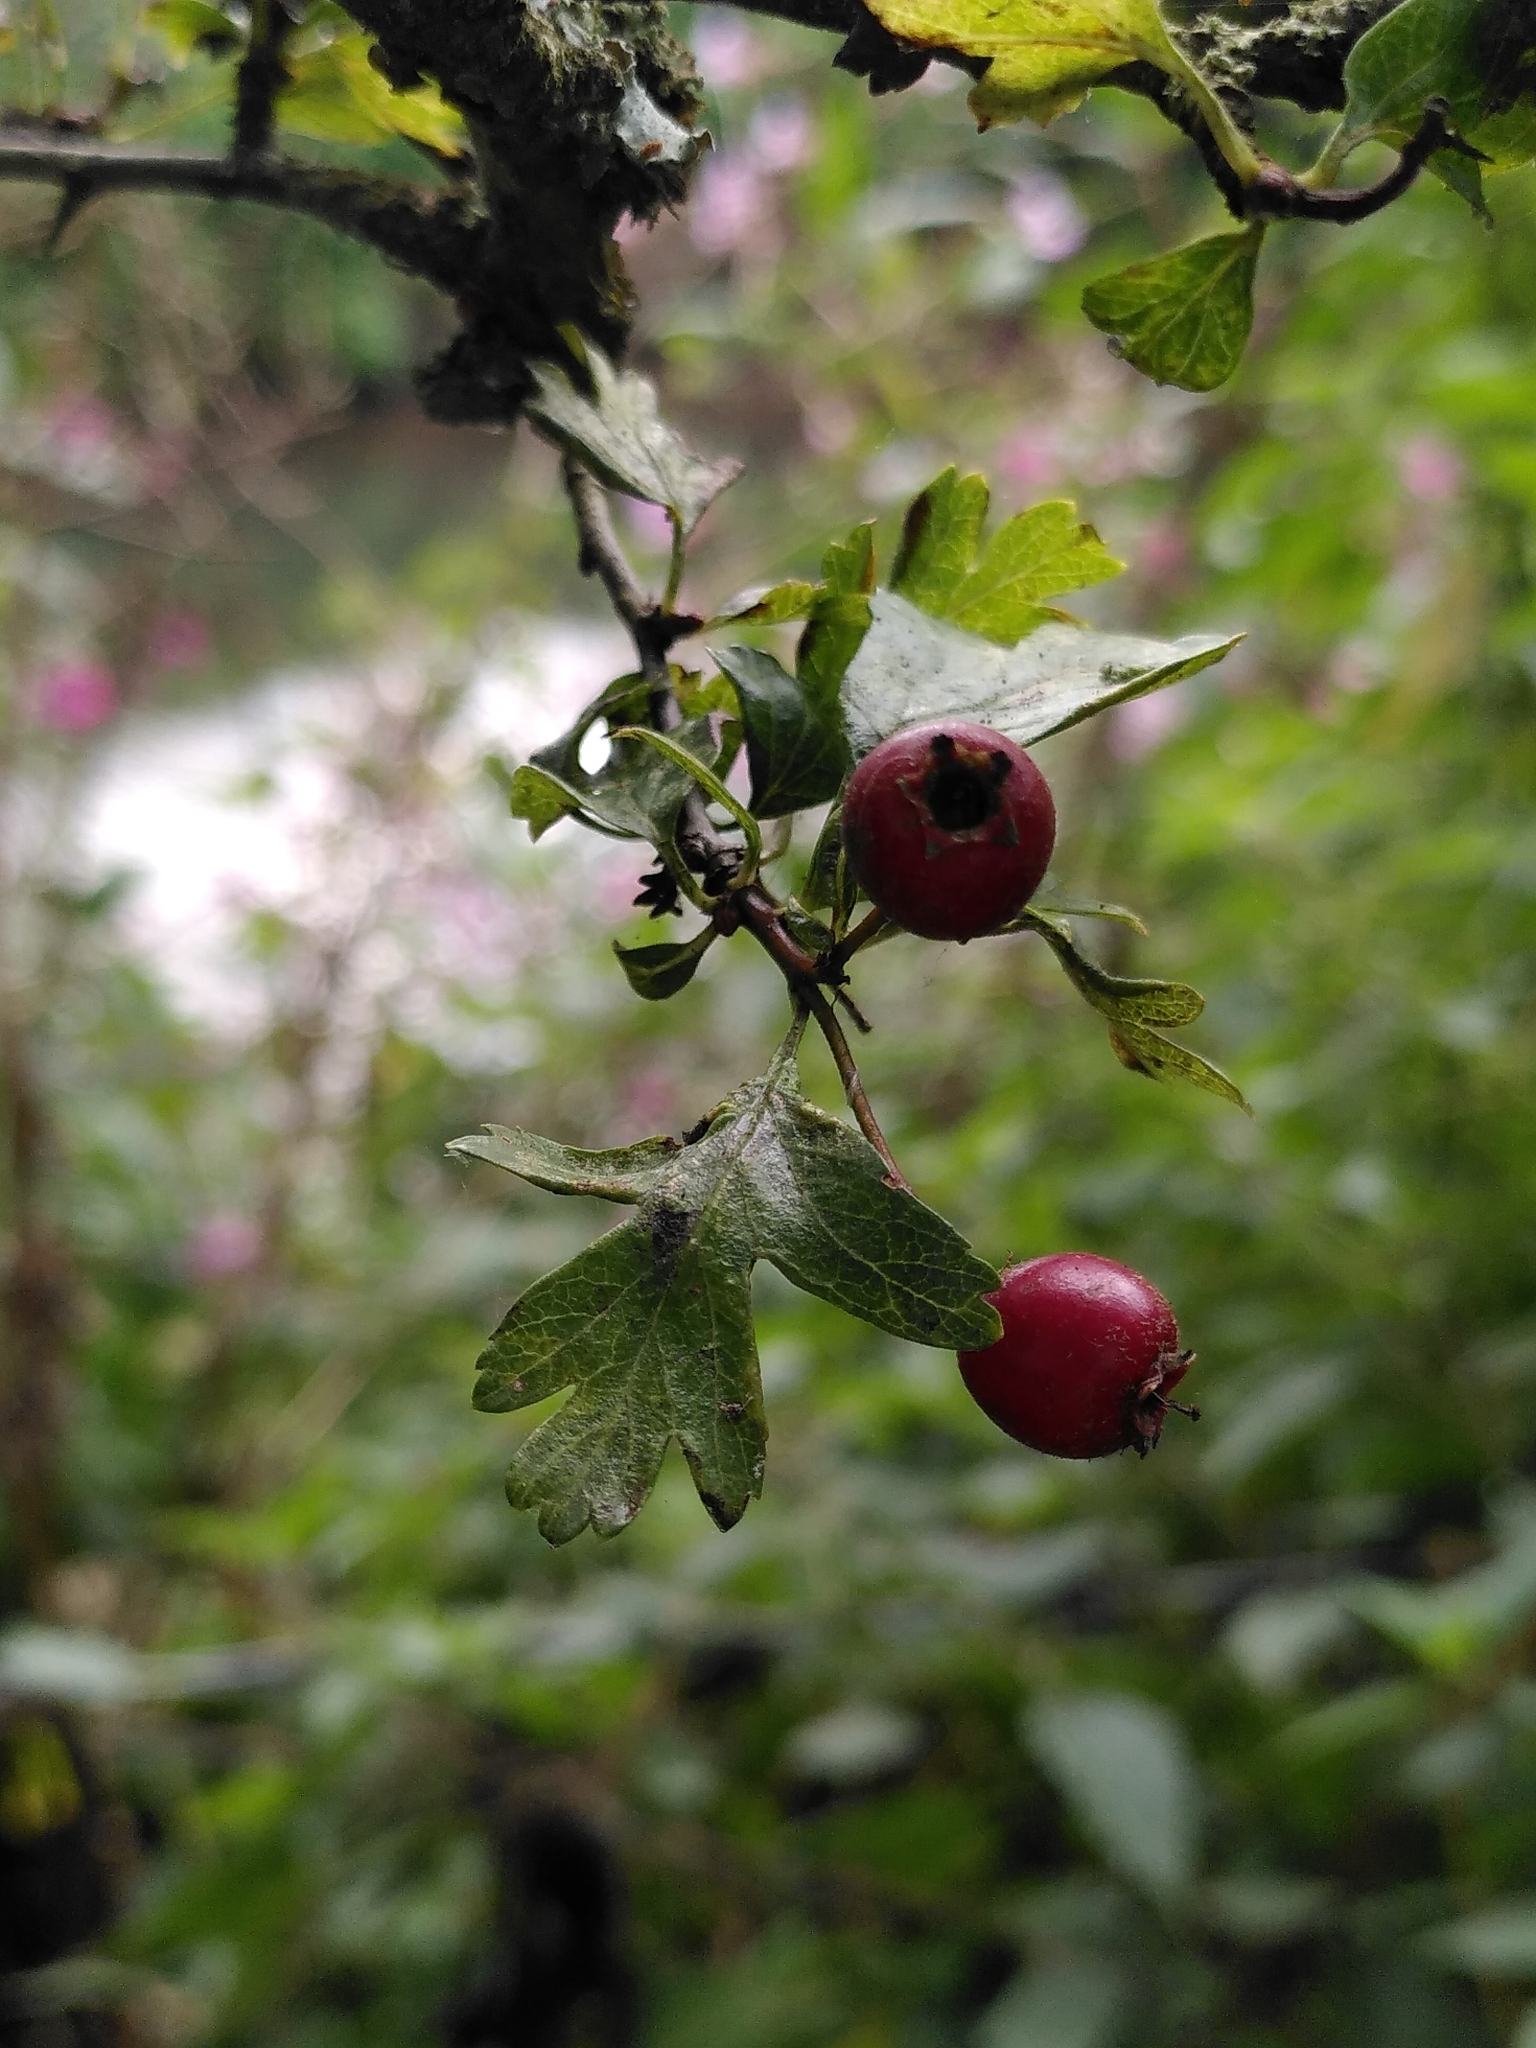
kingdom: Plantae
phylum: Tracheophyta
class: Magnoliopsida
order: Rosales
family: Rosaceae
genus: Crataegus
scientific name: Crataegus monogyna
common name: Hawthorn
